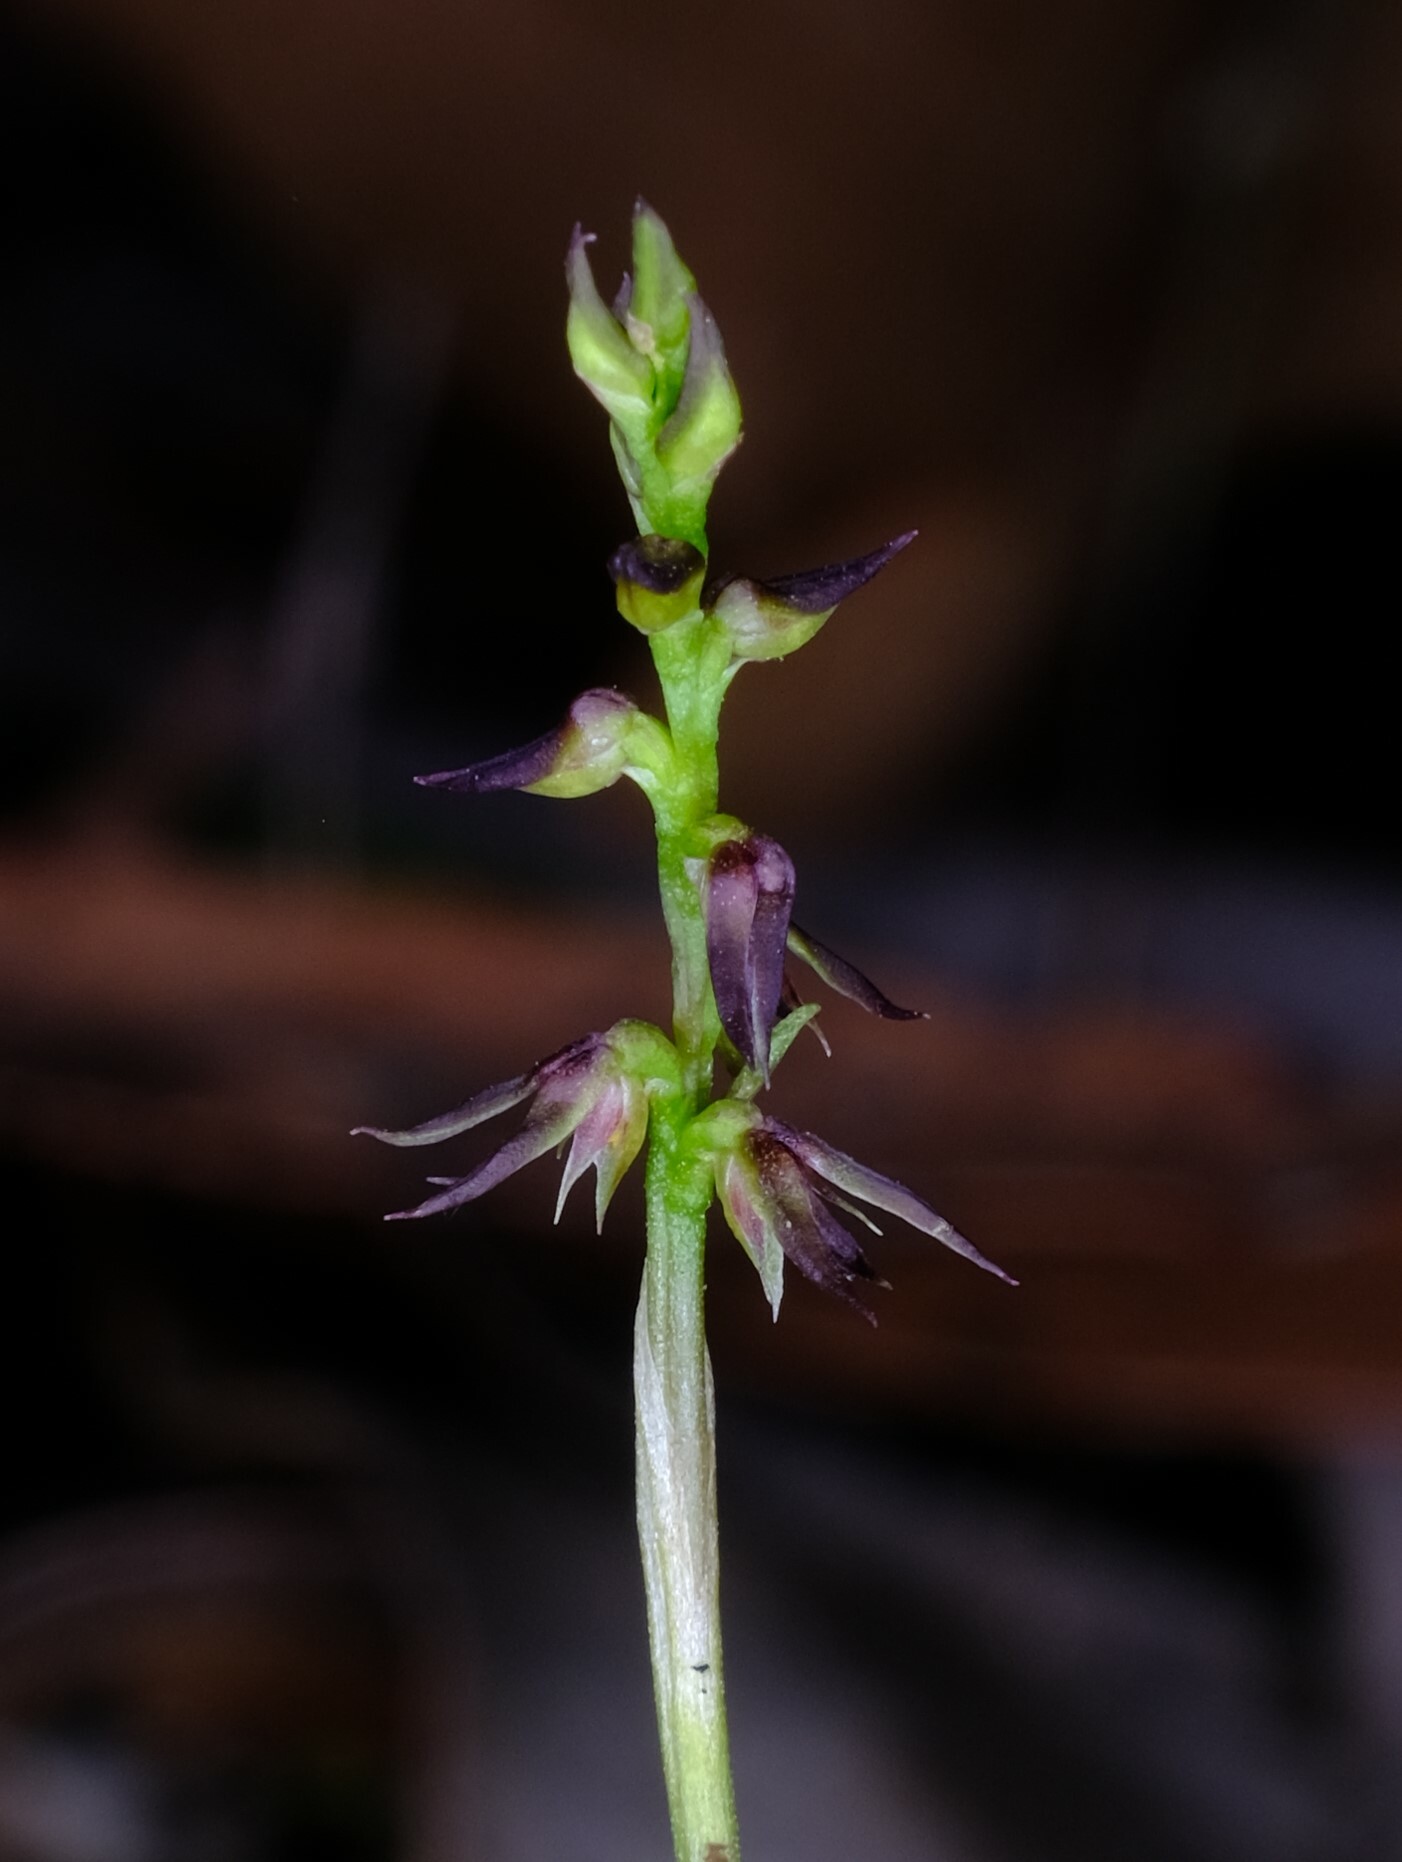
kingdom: Plantae
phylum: Tracheophyta
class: Liliopsida
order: Asparagales
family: Orchidaceae
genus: Genoplesium
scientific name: Genoplesium despectans
